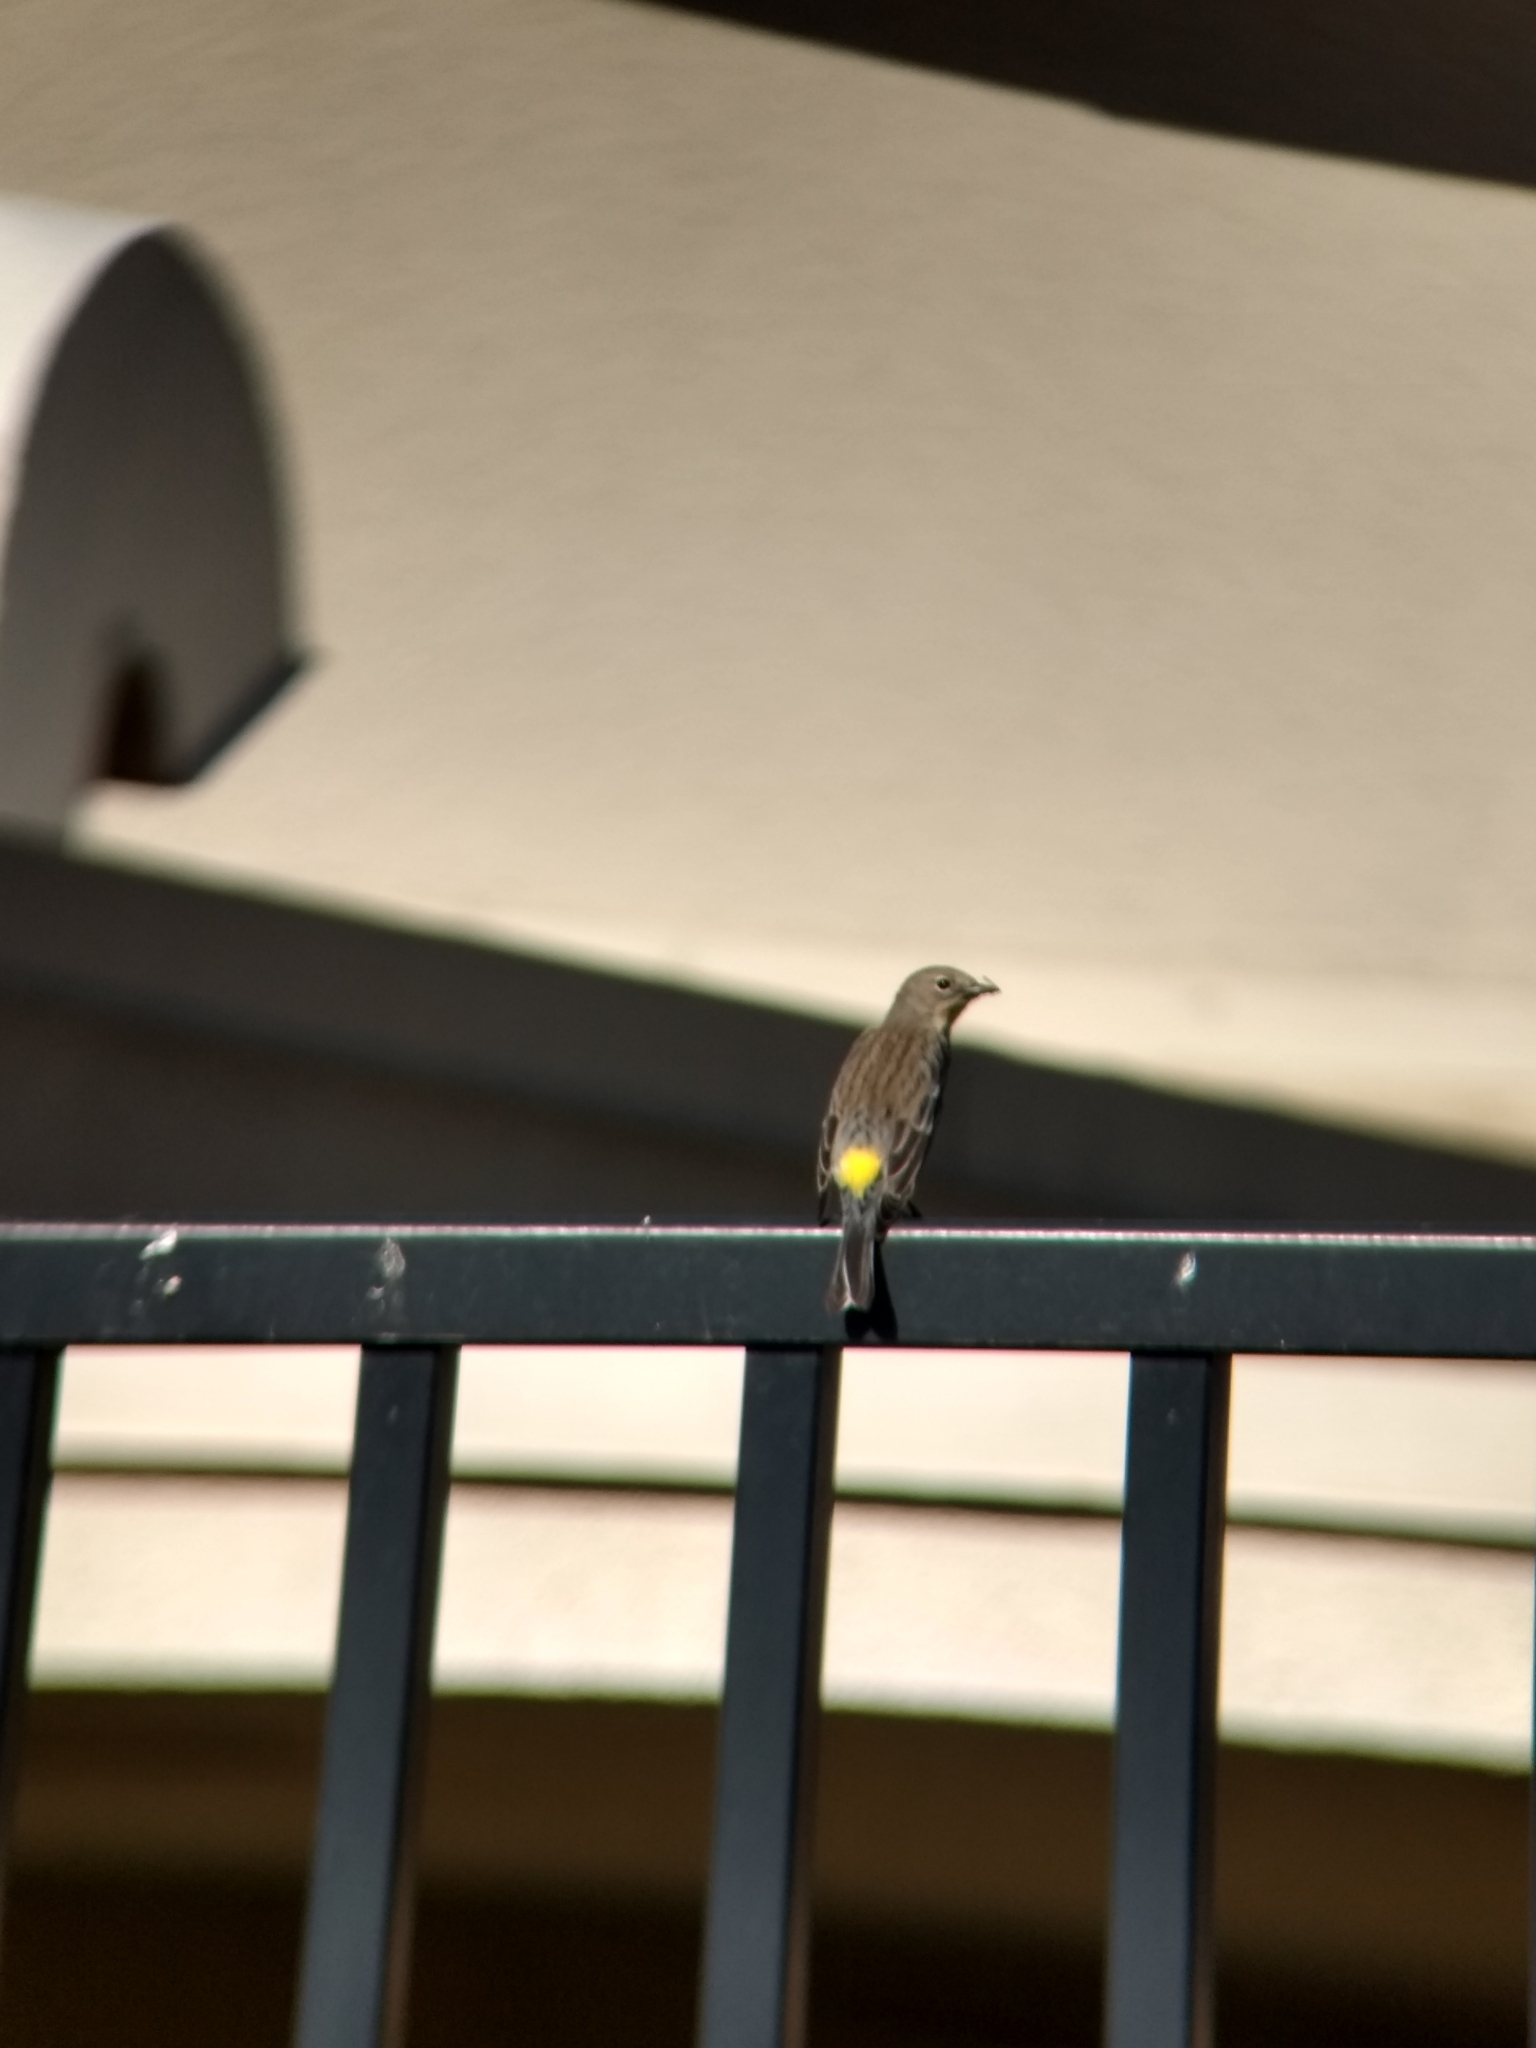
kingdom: Animalia
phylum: Chordata
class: Aves
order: Passeriformes
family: Parulidae
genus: Setophaga
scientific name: Setophaga coronata
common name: Myrtle warbler
